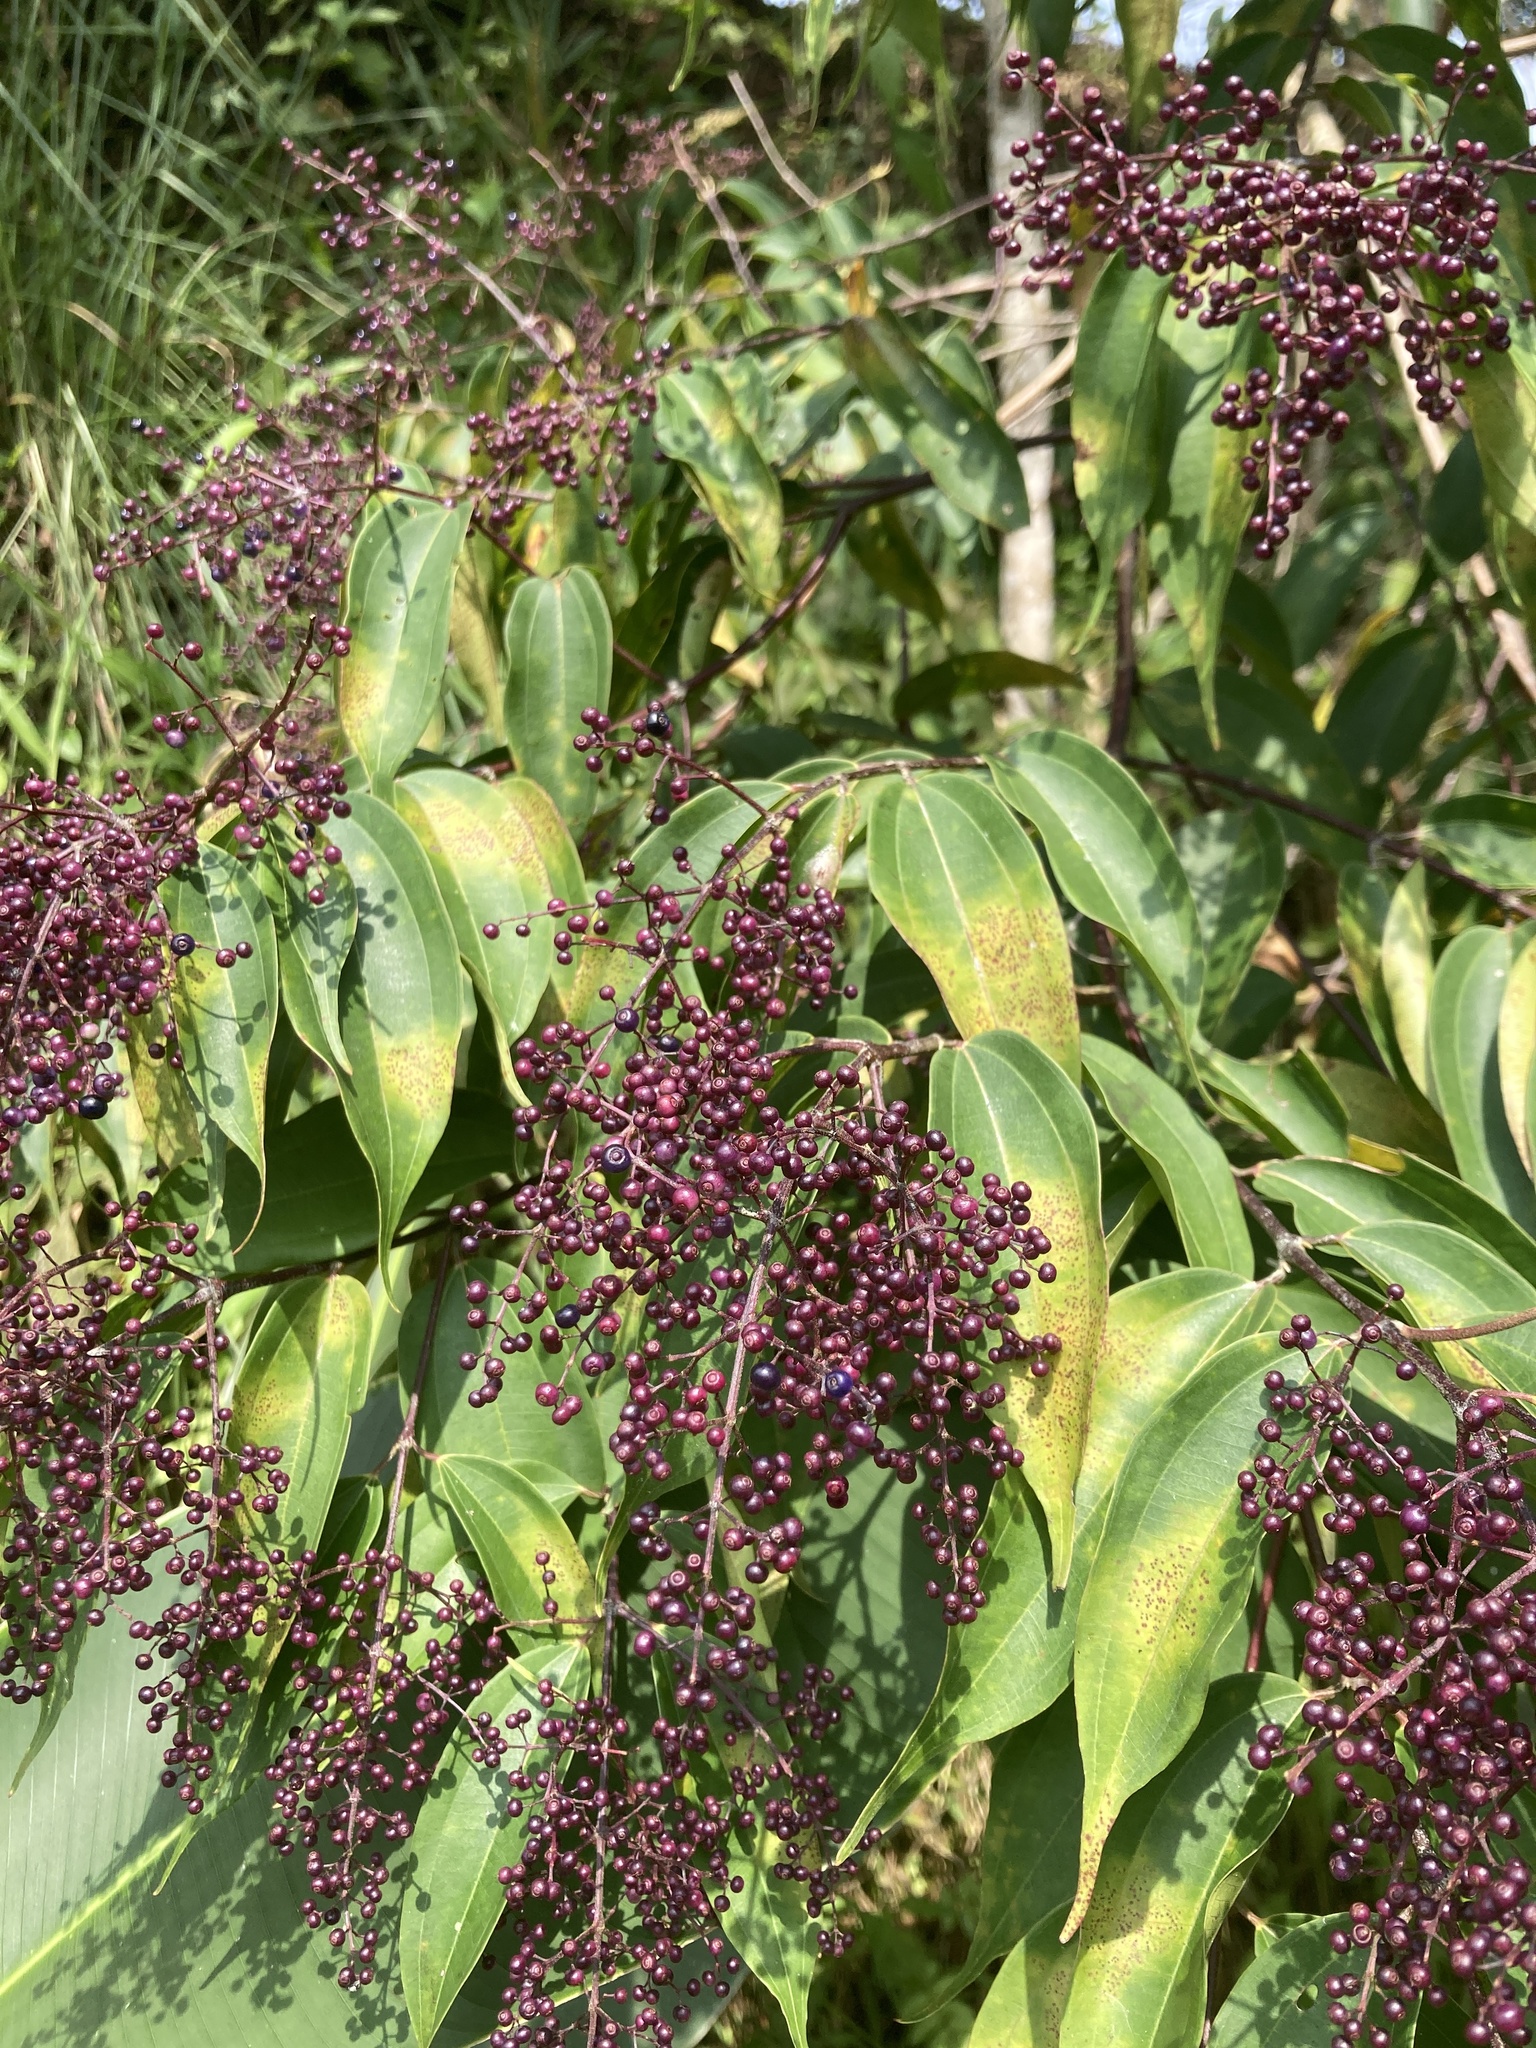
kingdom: Plantae
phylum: Tracheophyta
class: Magnoliopsida
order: Myrtales
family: Melastomataceae
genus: Miconia
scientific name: Miconia minutiflora
